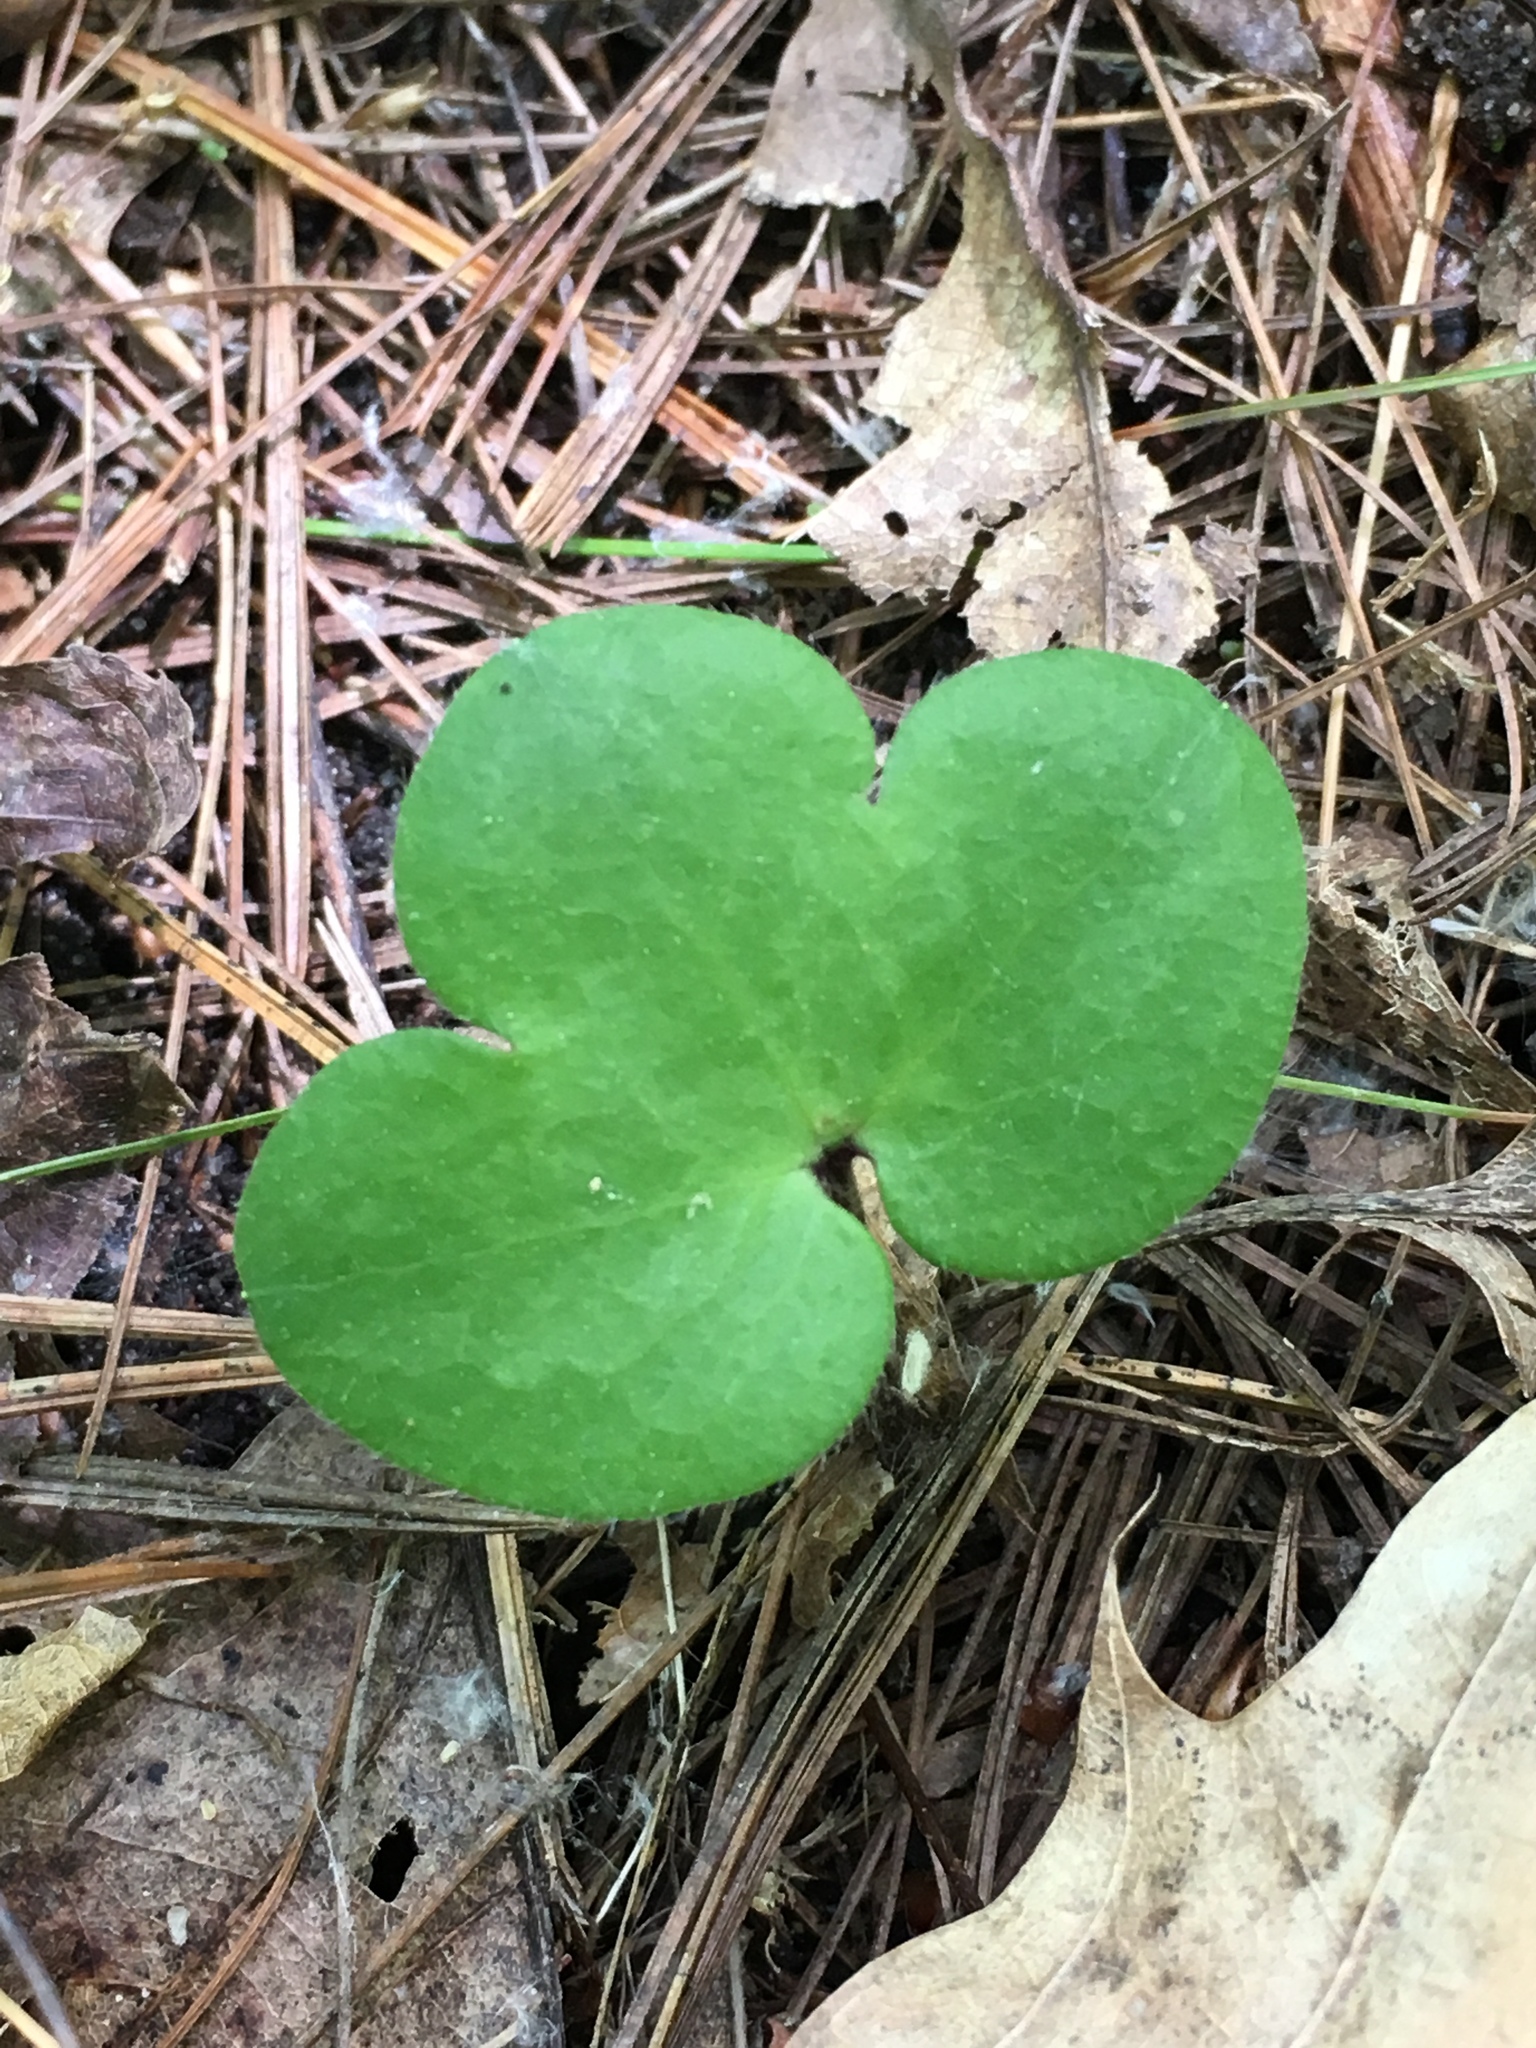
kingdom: Plantae
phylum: Tracheophyta
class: Magnoliopsida
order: Ranunculales
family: Ranunculaceae
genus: Hepatica
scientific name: Hepatica americana
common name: American hepatica
